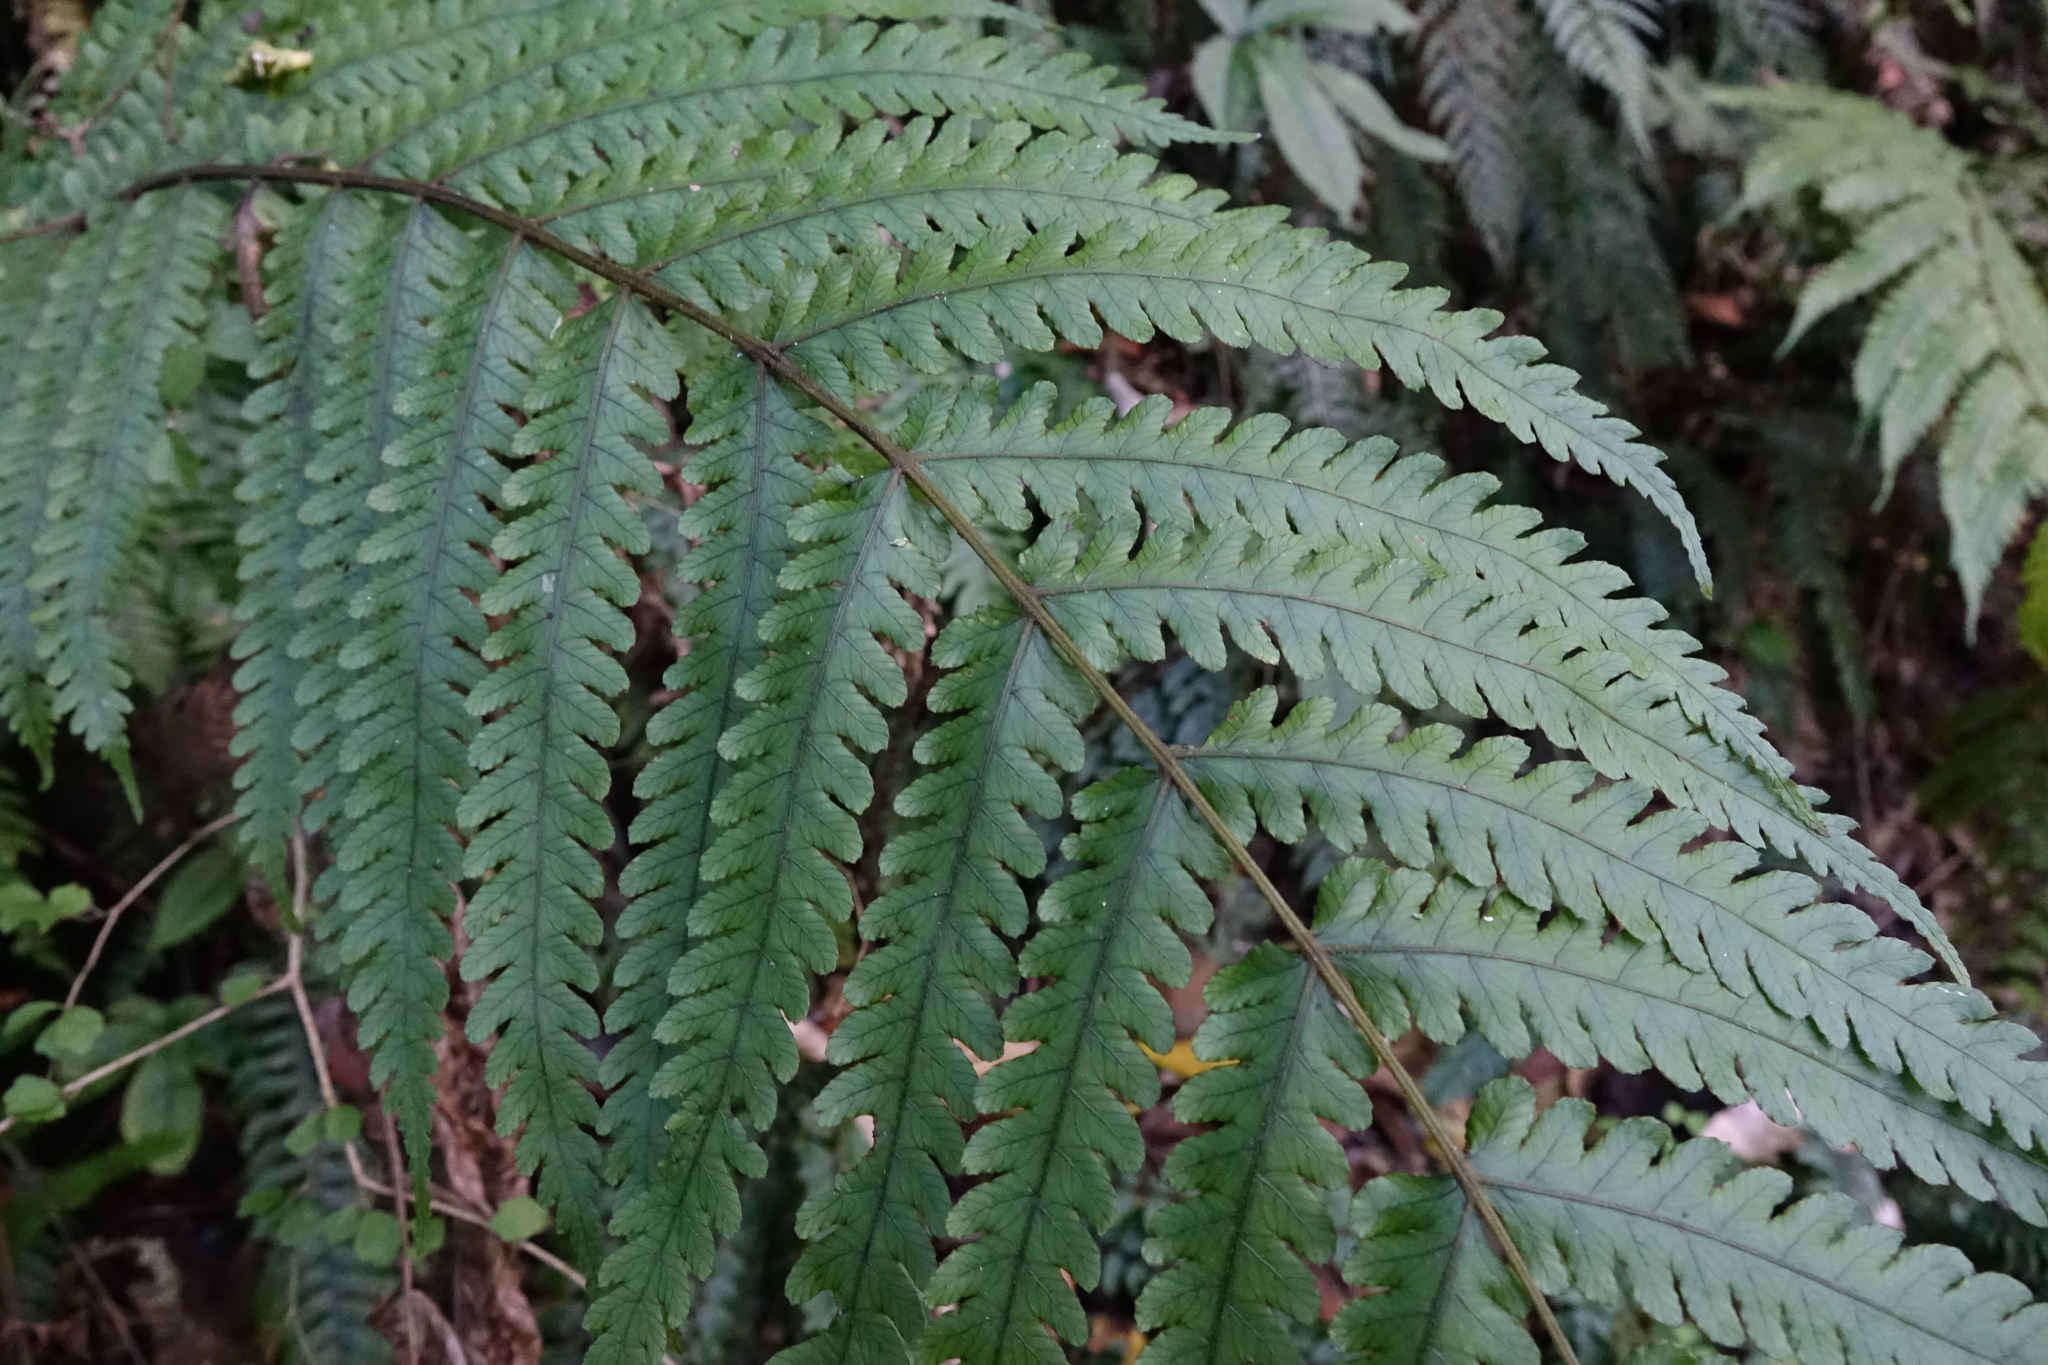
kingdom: Plantae
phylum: Tracheophyta
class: Polypodiopsida
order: Polypodiales
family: Thelypteridaceae
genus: Pakau
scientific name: Pakau pennigera
